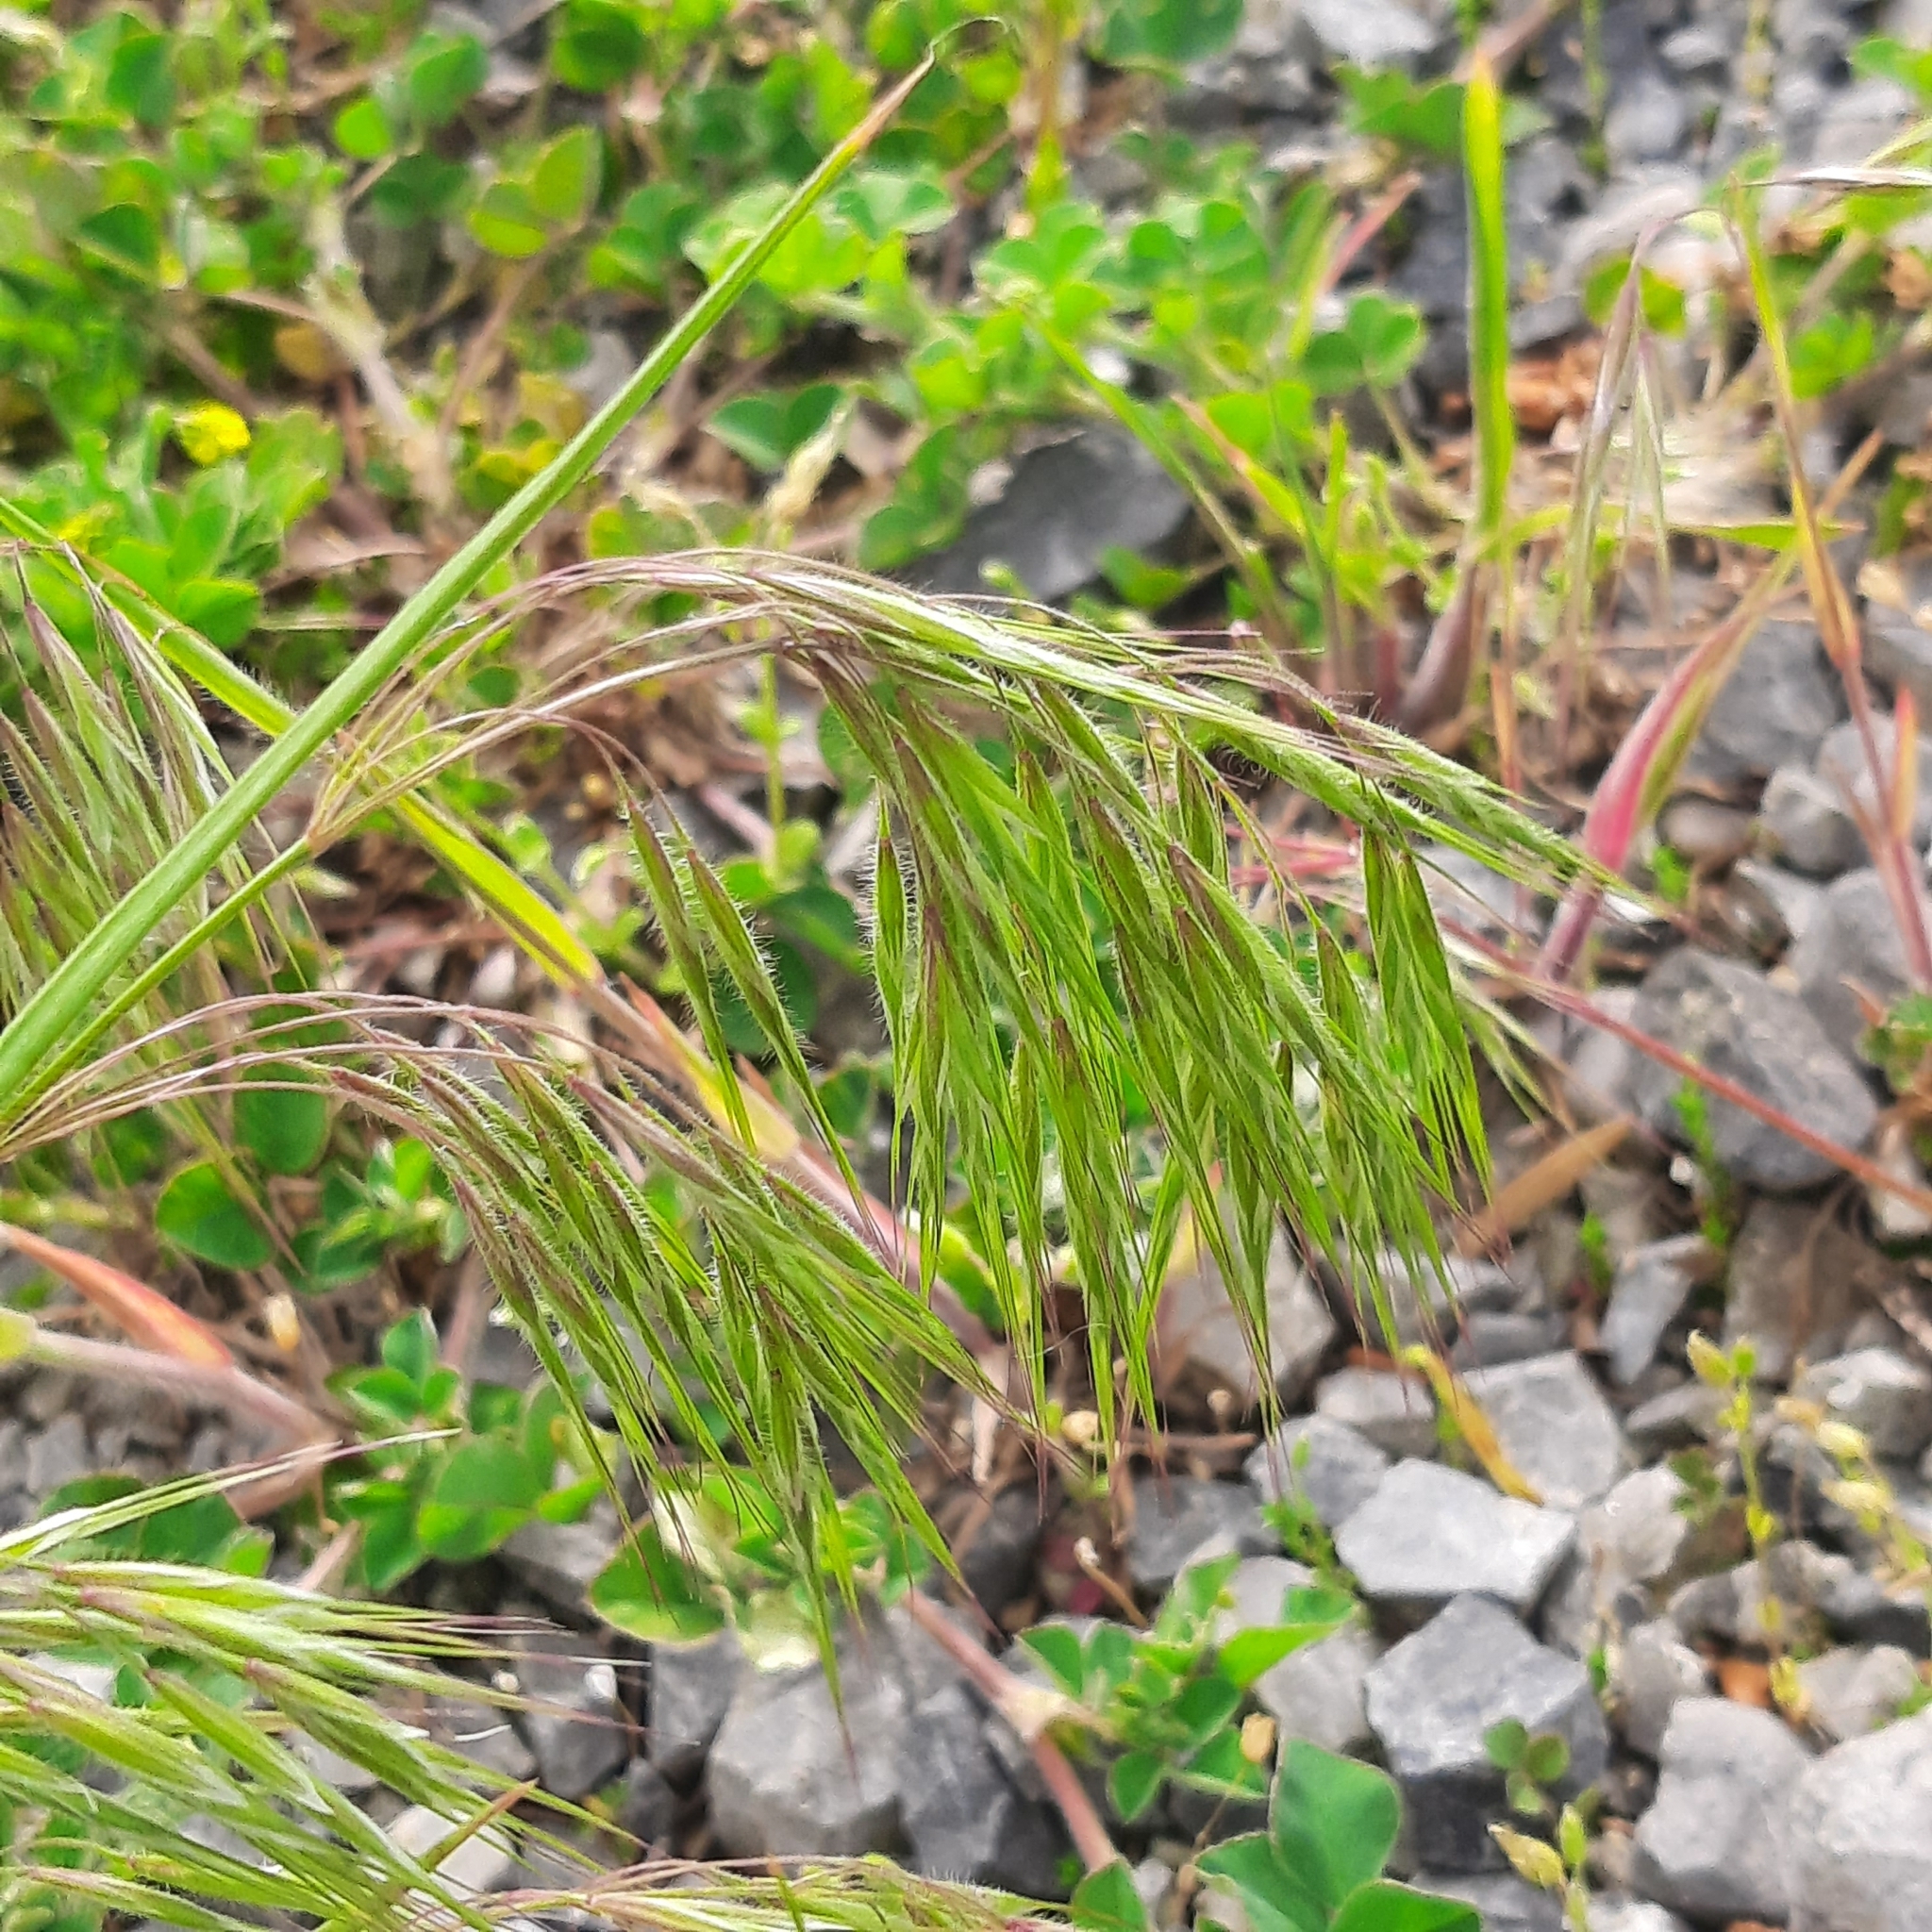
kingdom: Plantae
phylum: Tracheophyta
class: Liliopsida
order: Poales
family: Poaceae
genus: Bromus
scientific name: Bromus tectorum
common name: Cheatgrass
